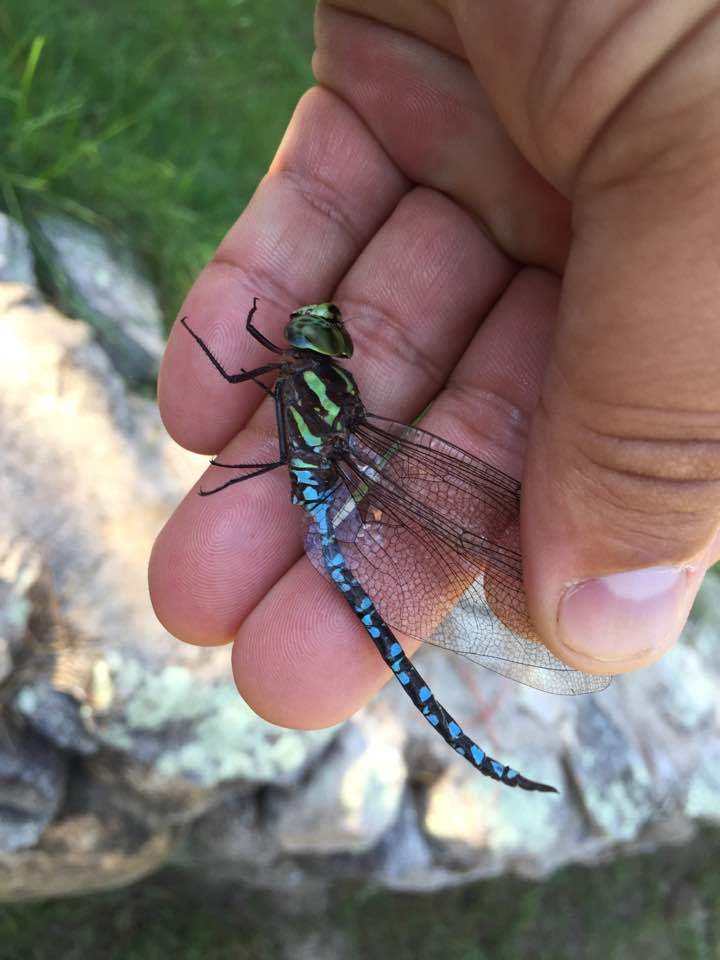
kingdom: Animalia
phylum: Arthropoda
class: Insecta
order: Odonata
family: Aeshnidae
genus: Aeshna
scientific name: Aeshna verticalis
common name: Green-striped darner
